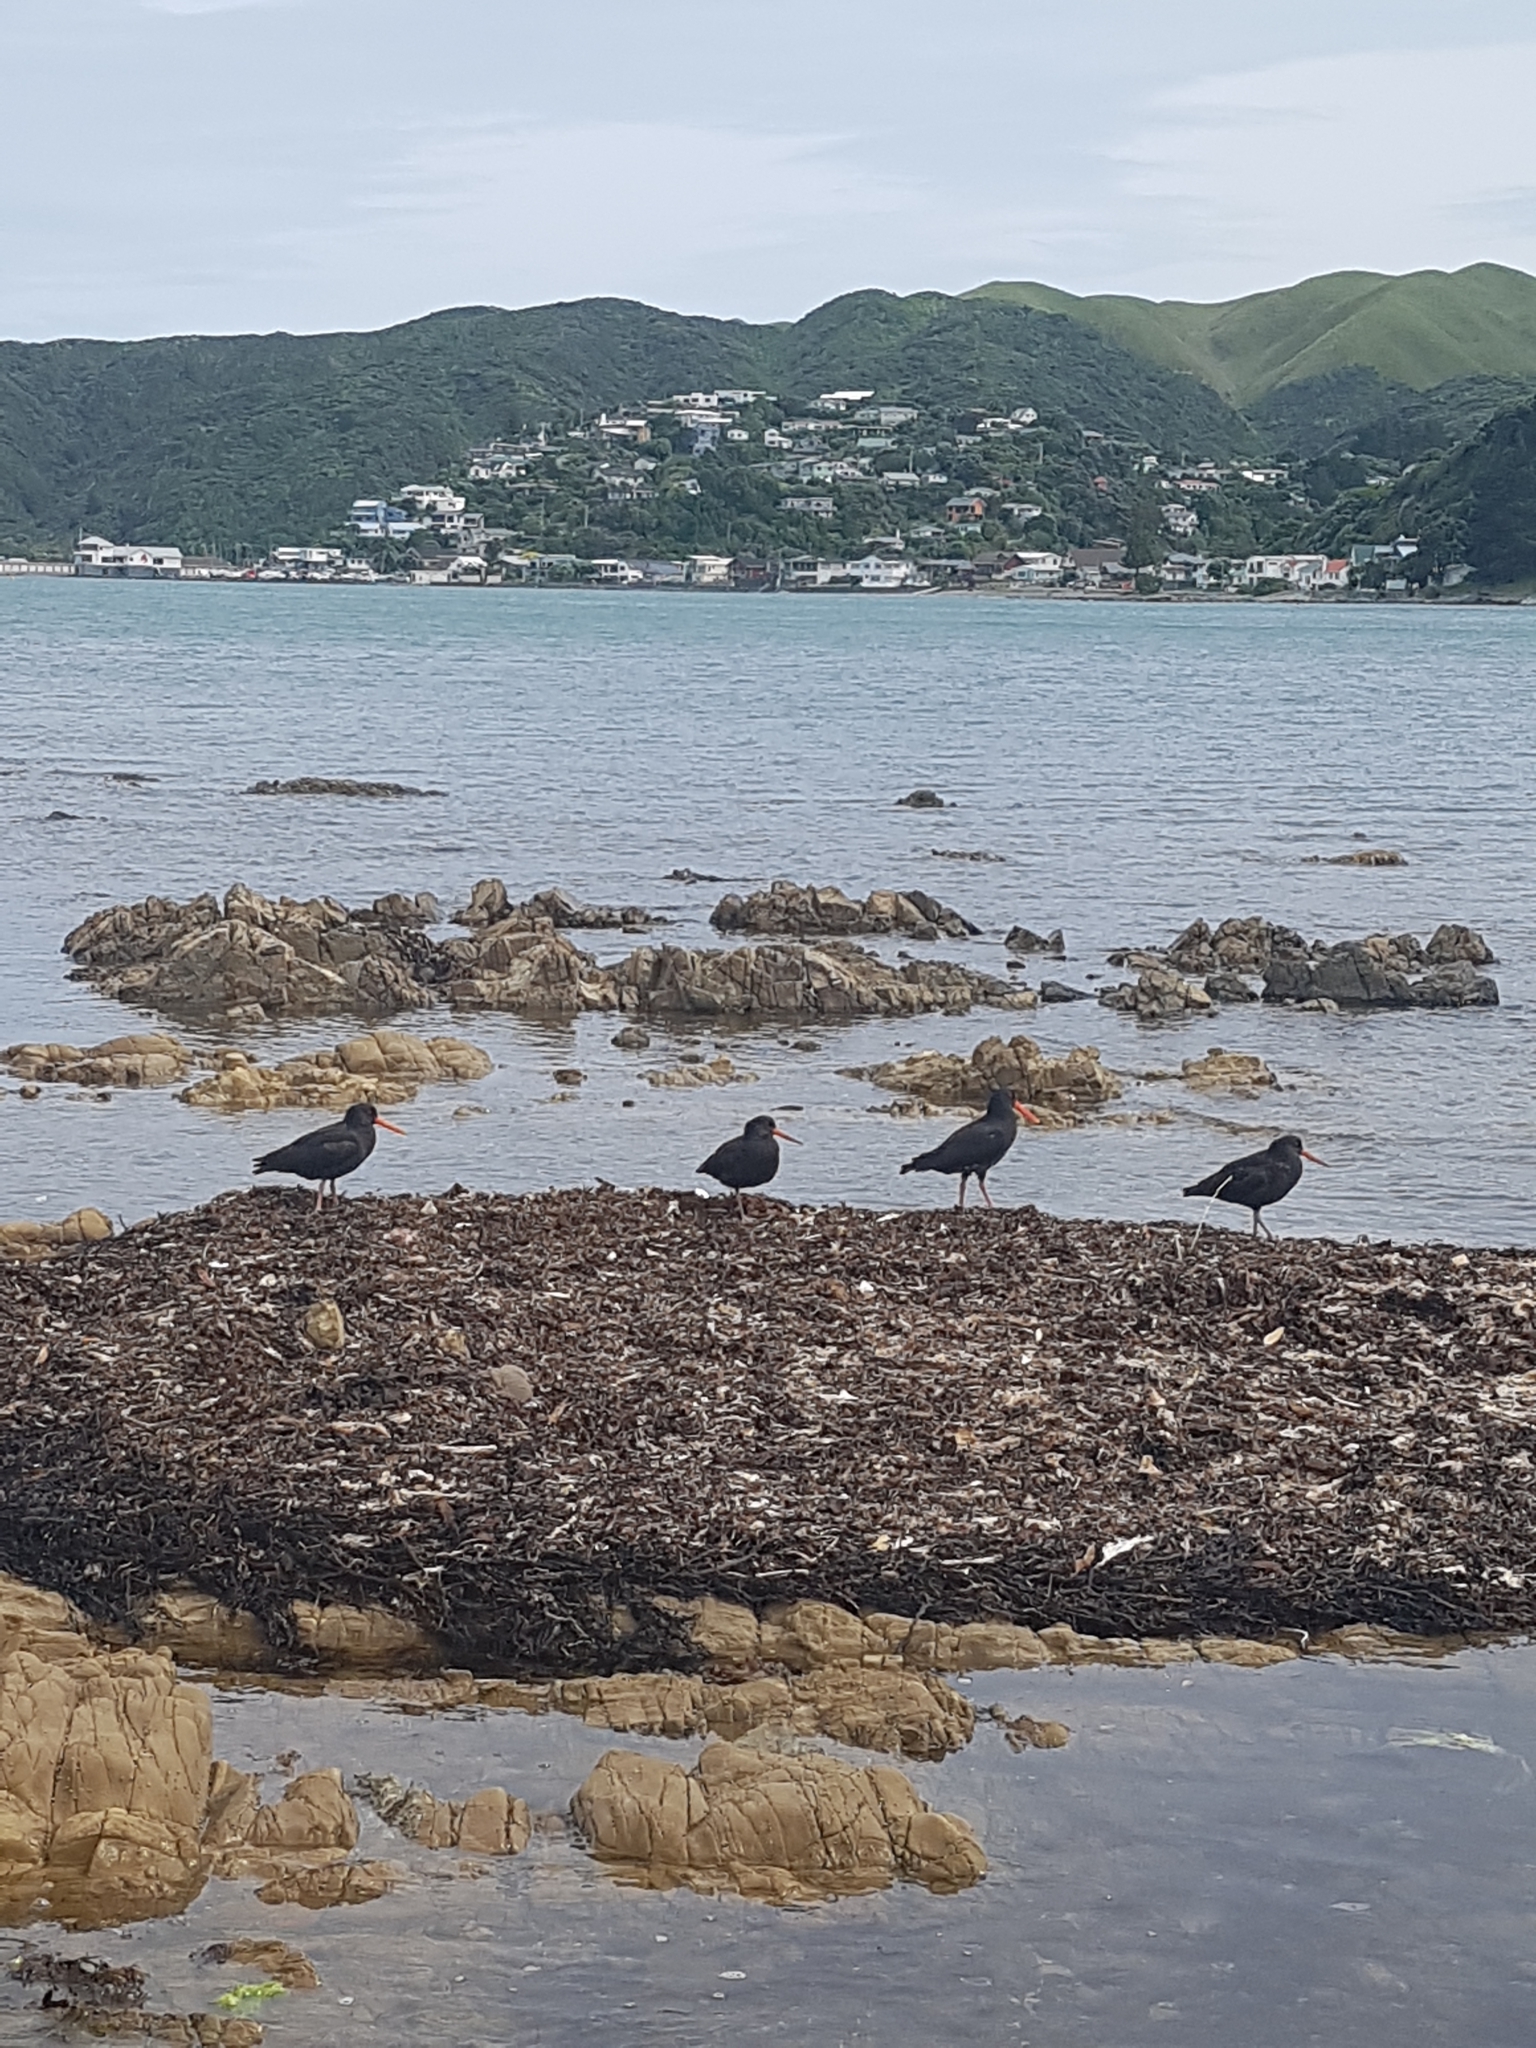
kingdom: Animalia
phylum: Chordata
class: Aves
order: Charadriiformes
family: Haematopodidae
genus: Haematopus
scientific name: Haematopus unicolor
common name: Variable oystercatcher
